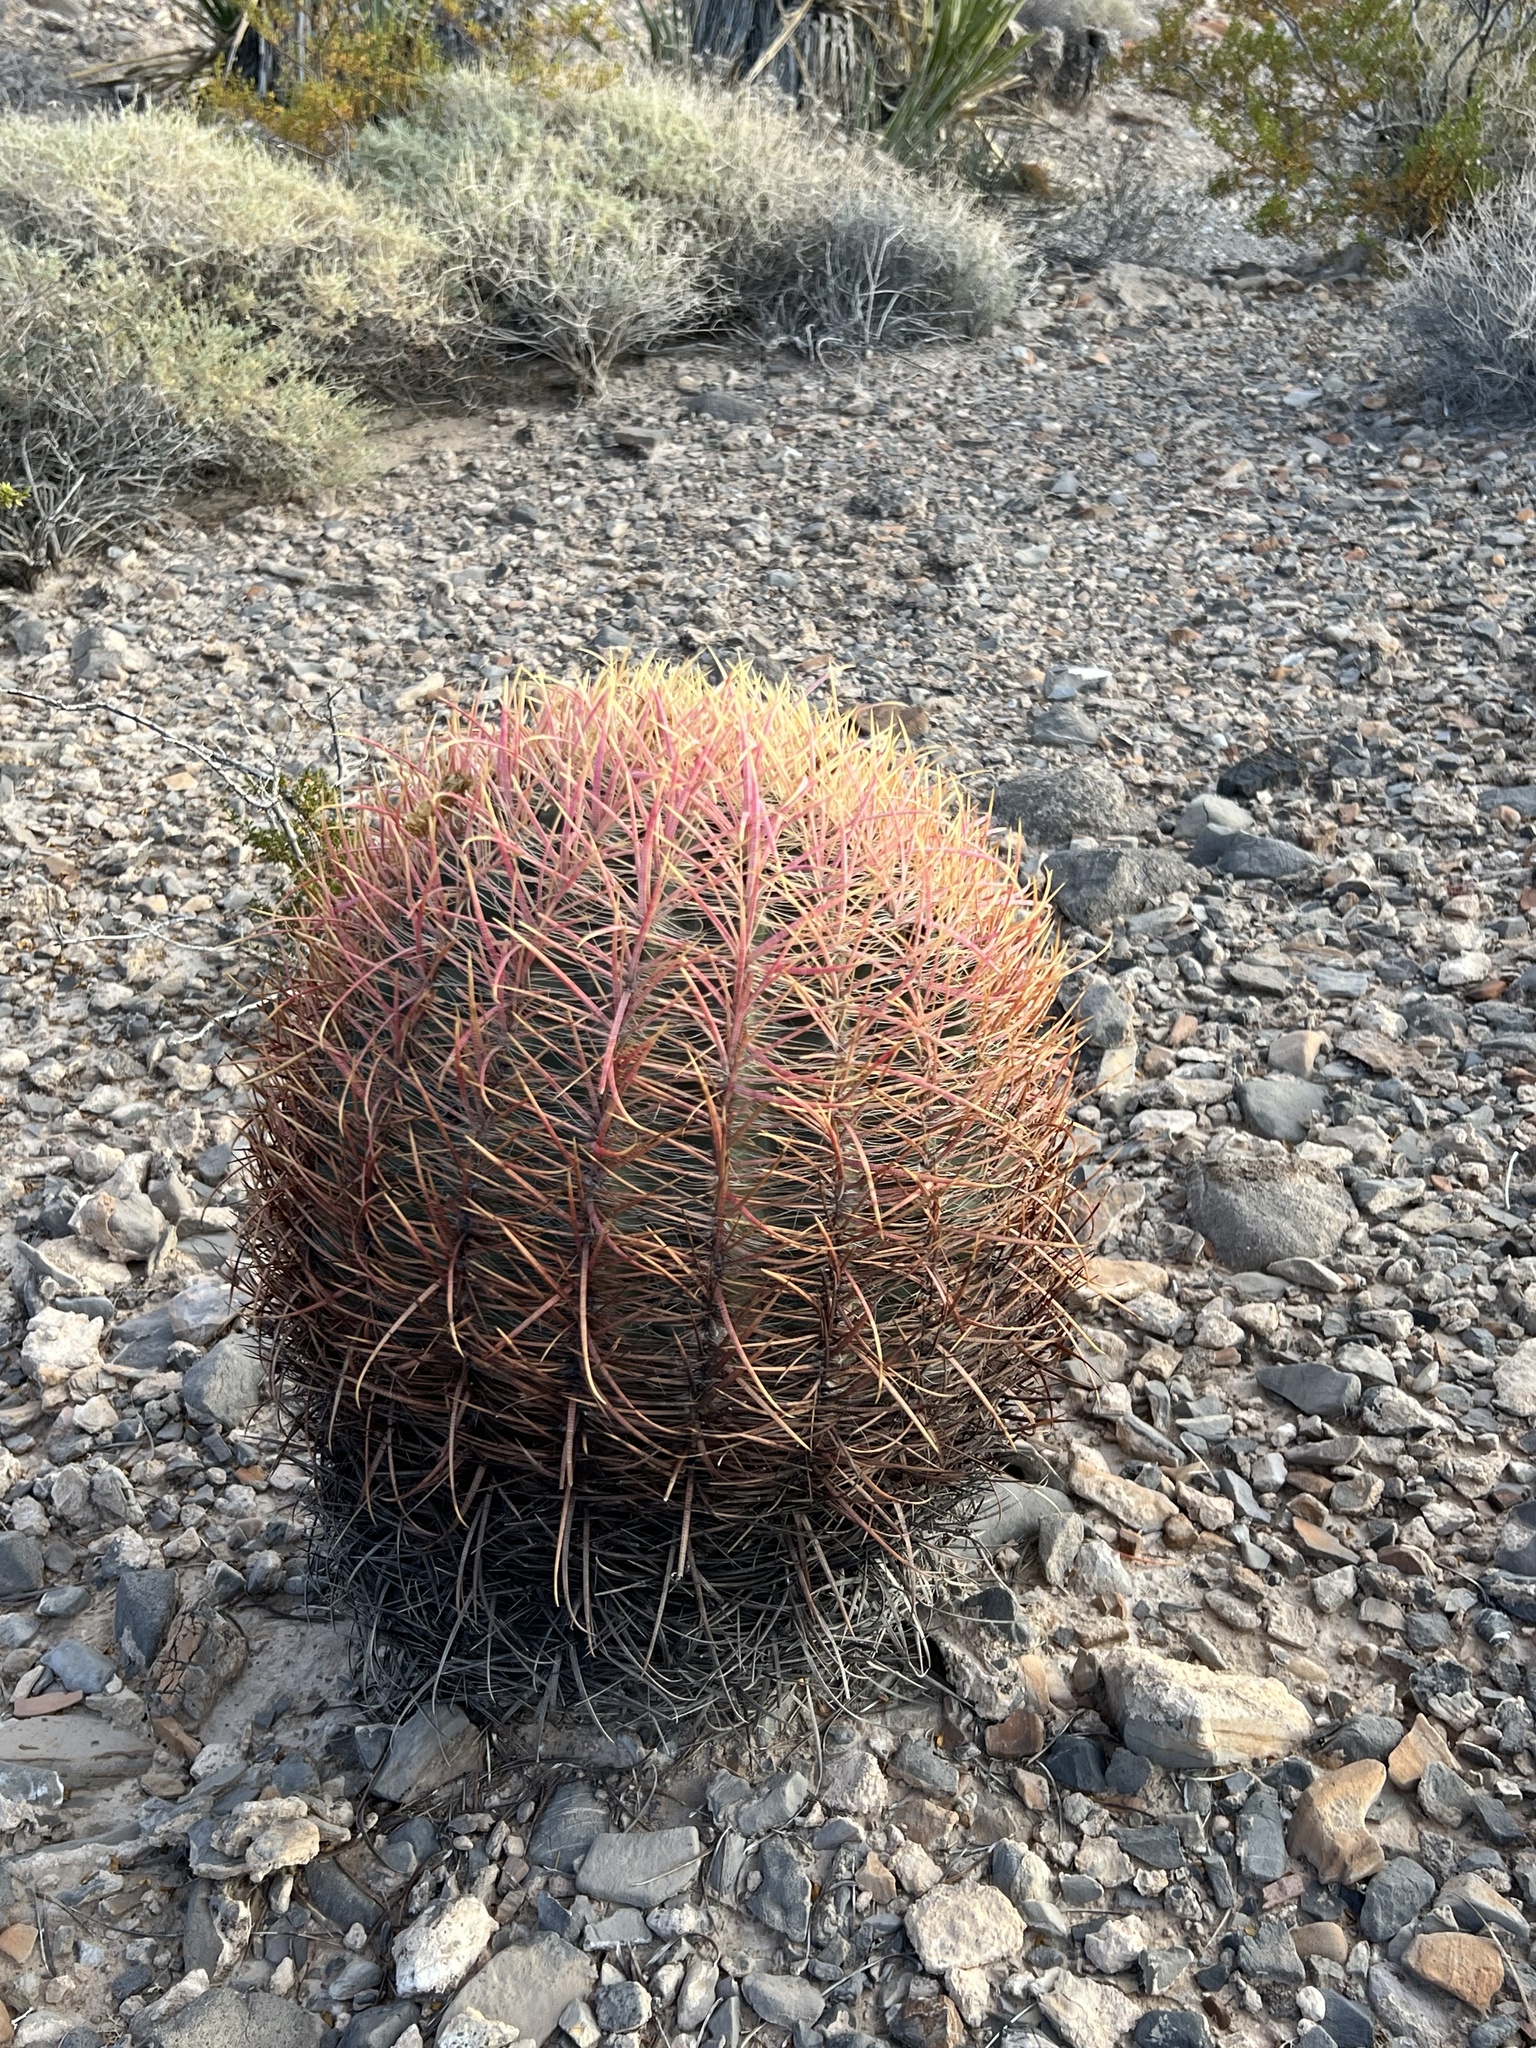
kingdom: Plantae
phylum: Tracheophyta
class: Magnoliopsida
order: Caryophyllales
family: Cactaceae
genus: Ferocactus
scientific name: Ferocactus cylindraceus
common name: California barrel cactus
